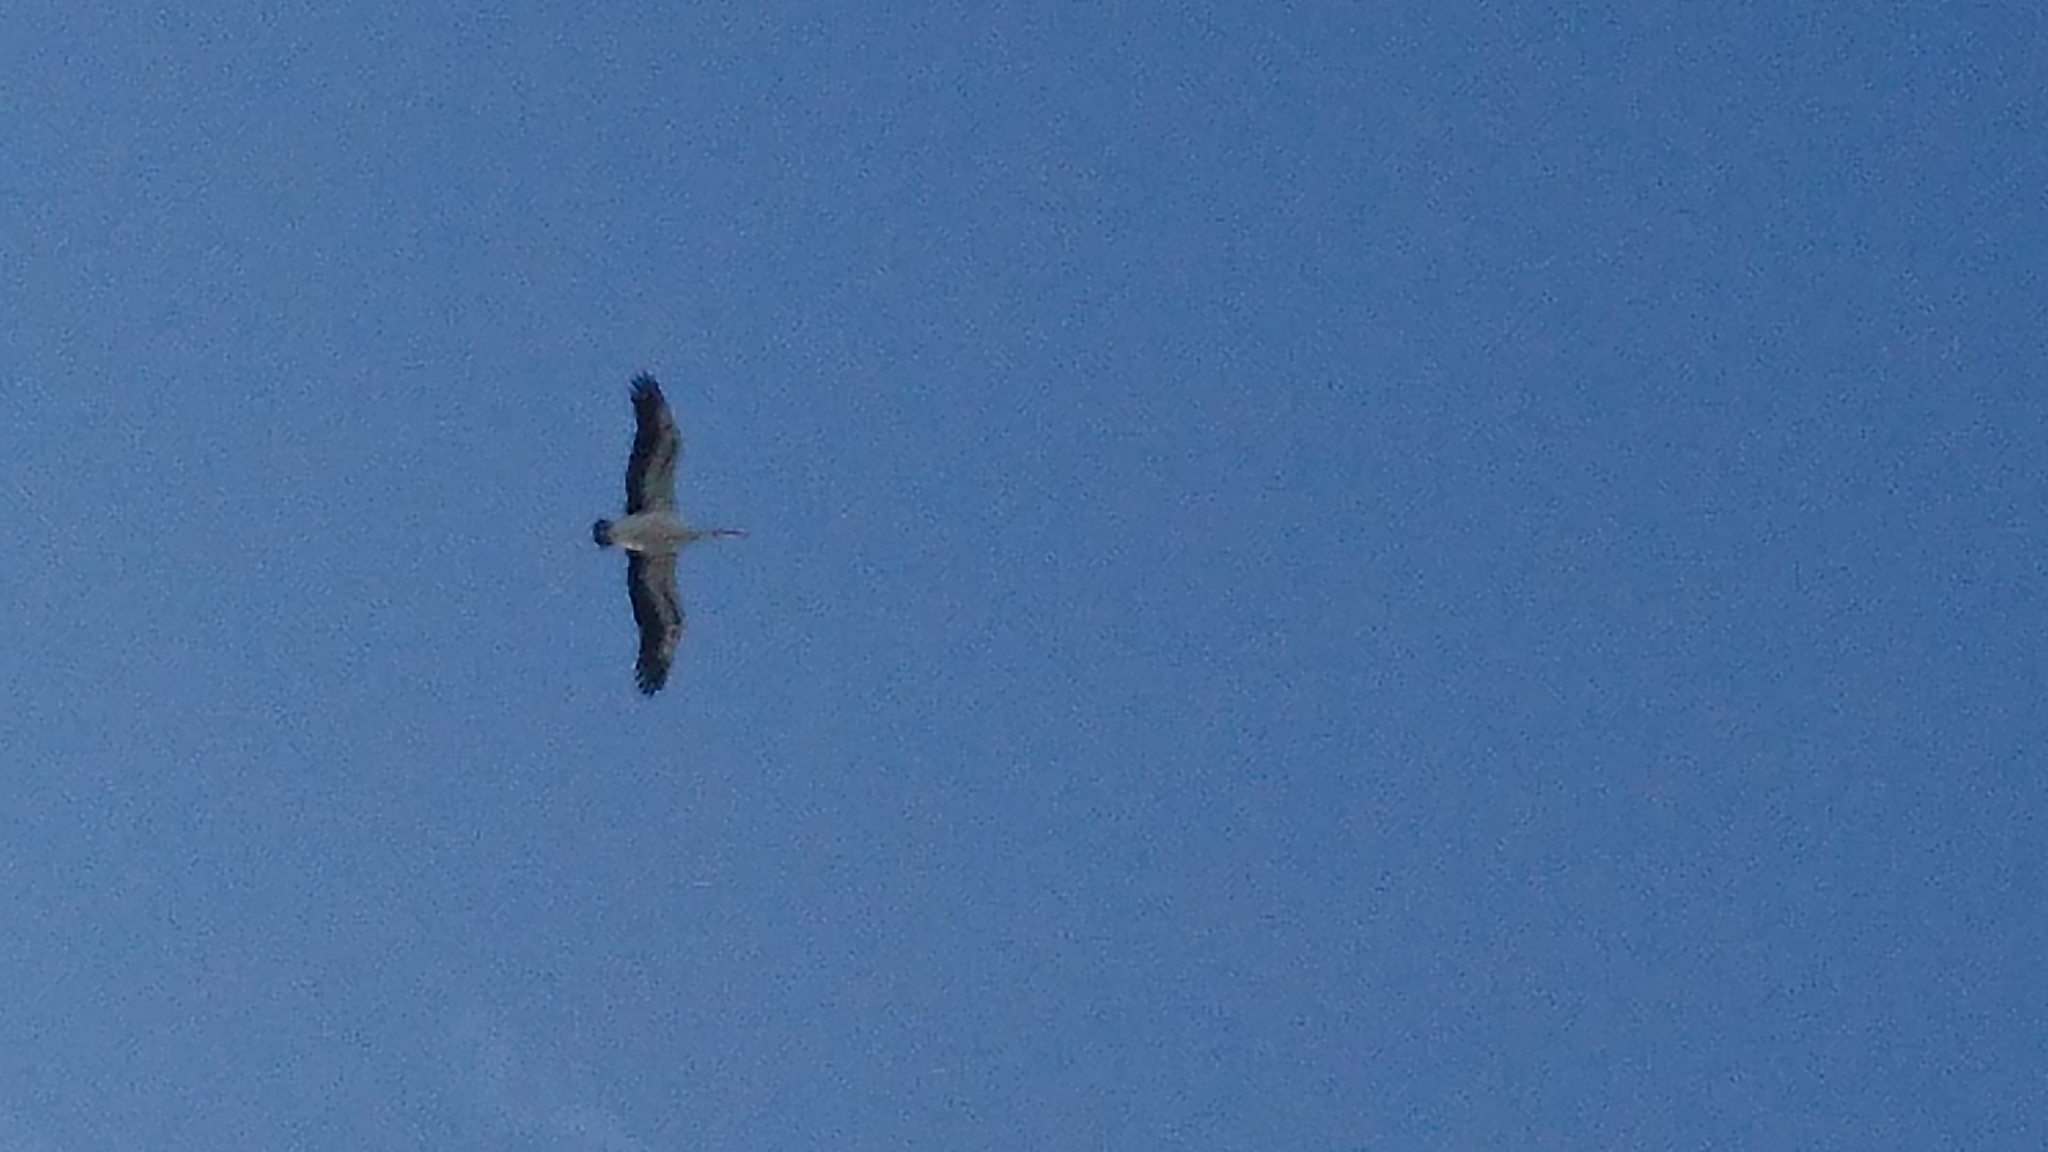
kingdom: Animalia
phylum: Chordata
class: Aves
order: Pelecaniformes
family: Pelecanidae
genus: Pelecanus
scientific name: Pelecanus conspicillatus
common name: Australian pelican
